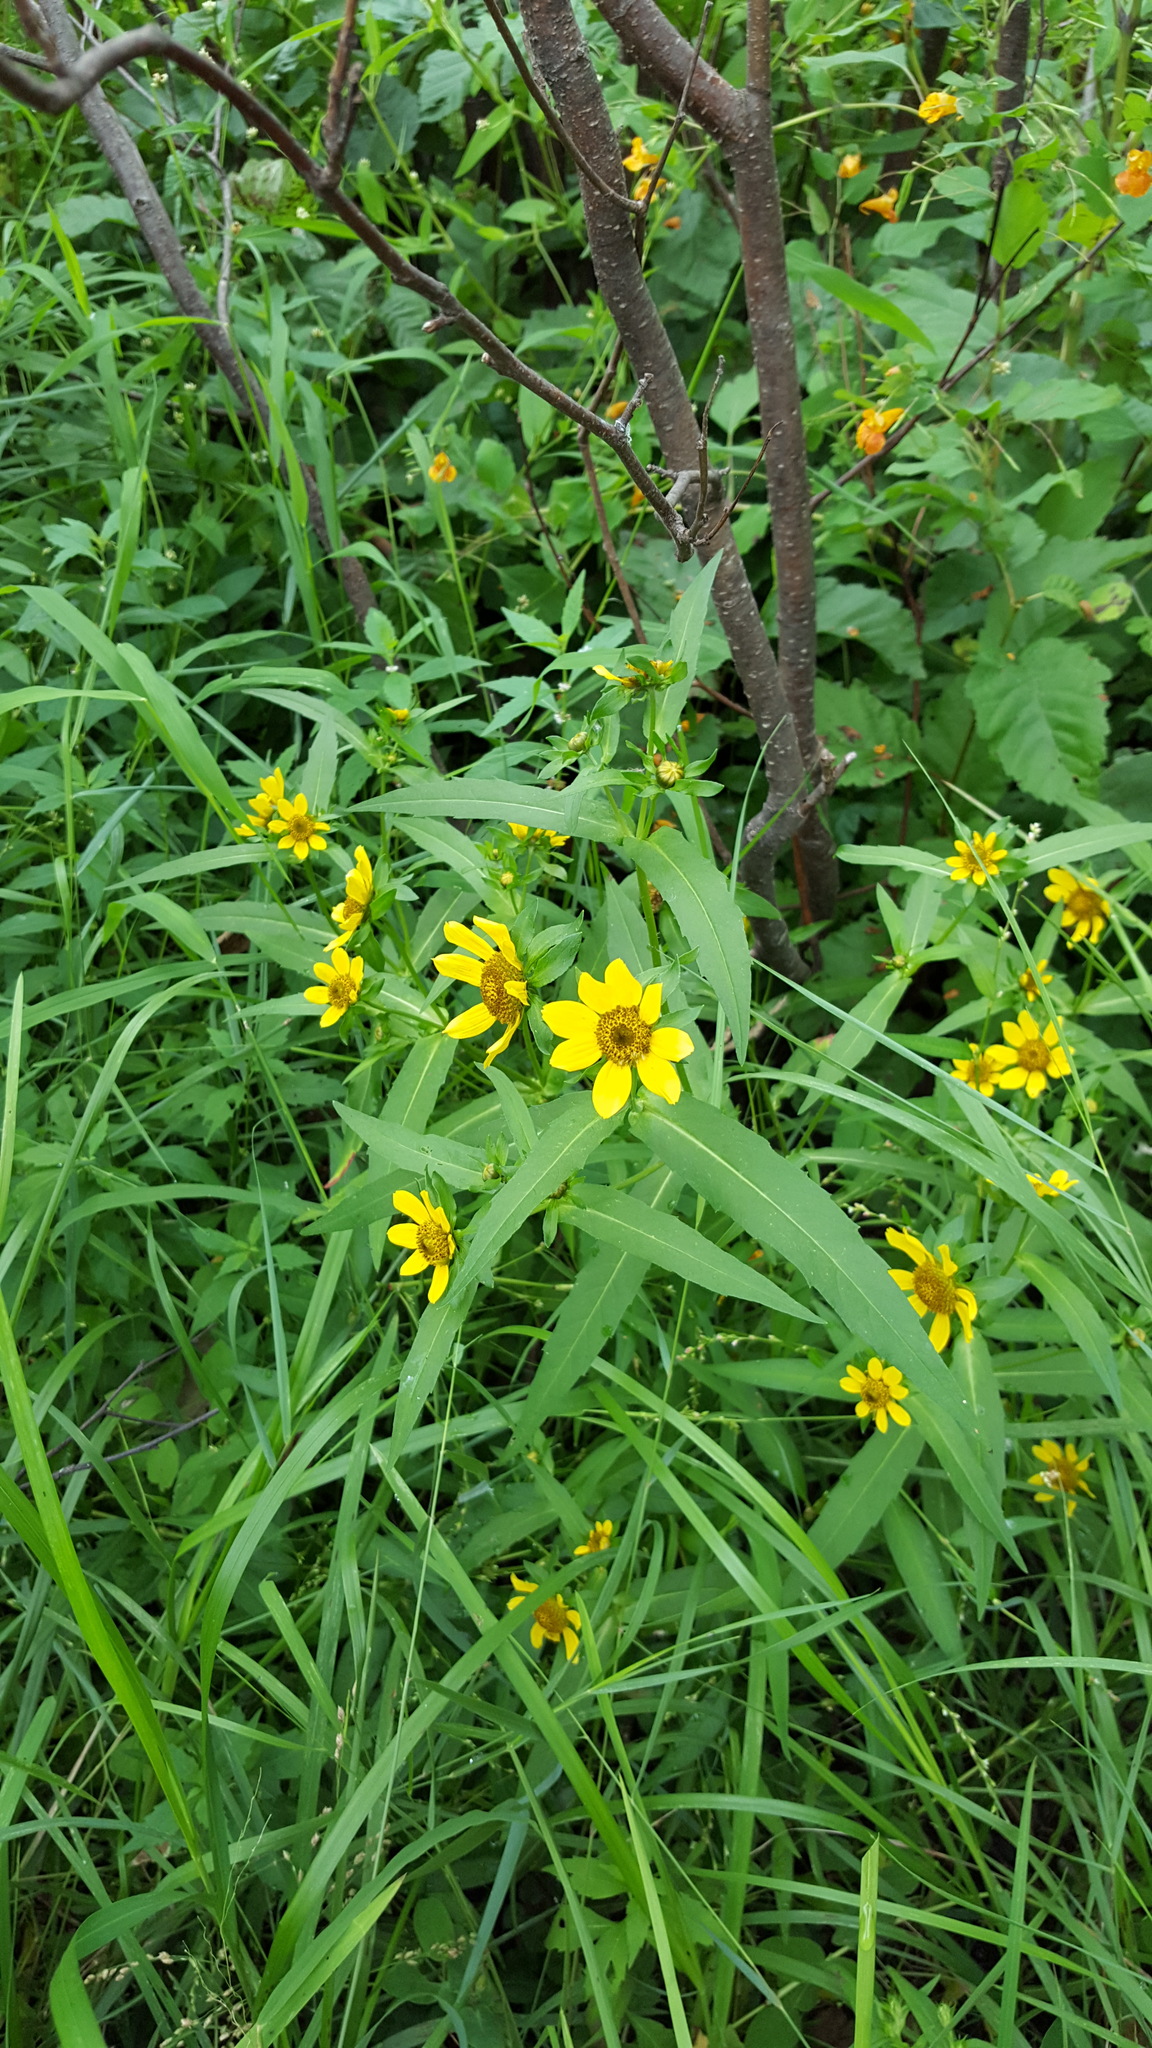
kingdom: Plantae
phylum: Tracheophyta
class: Magnoliopsida
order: Asterales
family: Asteraceae
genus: Bidens
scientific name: Bidens cernua
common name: Nodding bur-marigold
